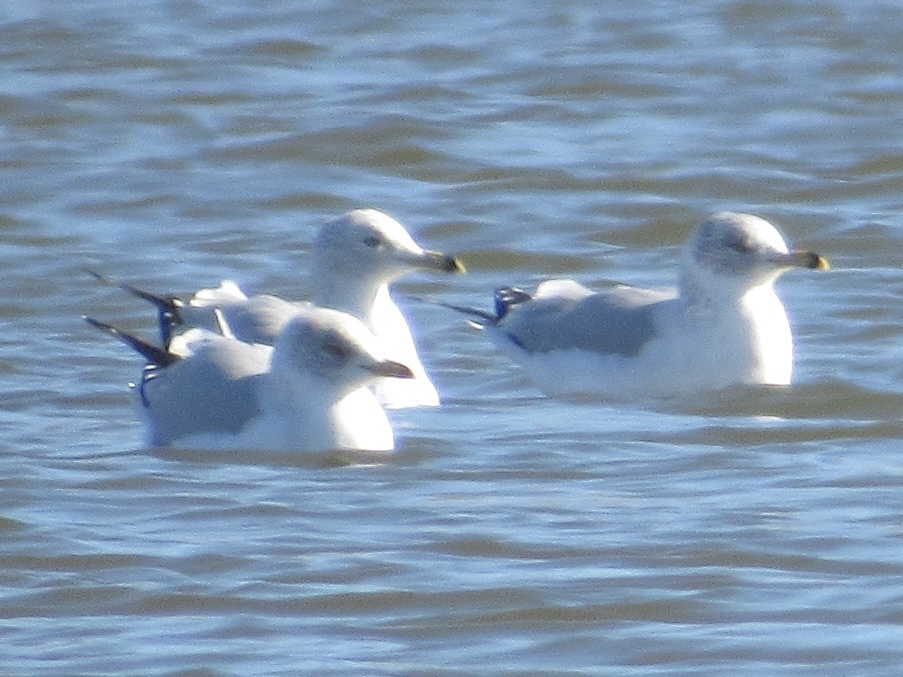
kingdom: Animalia
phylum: Chordata
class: Aves
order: Charadriiformes
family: Laridae
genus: Larus
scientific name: Larus delawarensis
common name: Ring-billed gull
